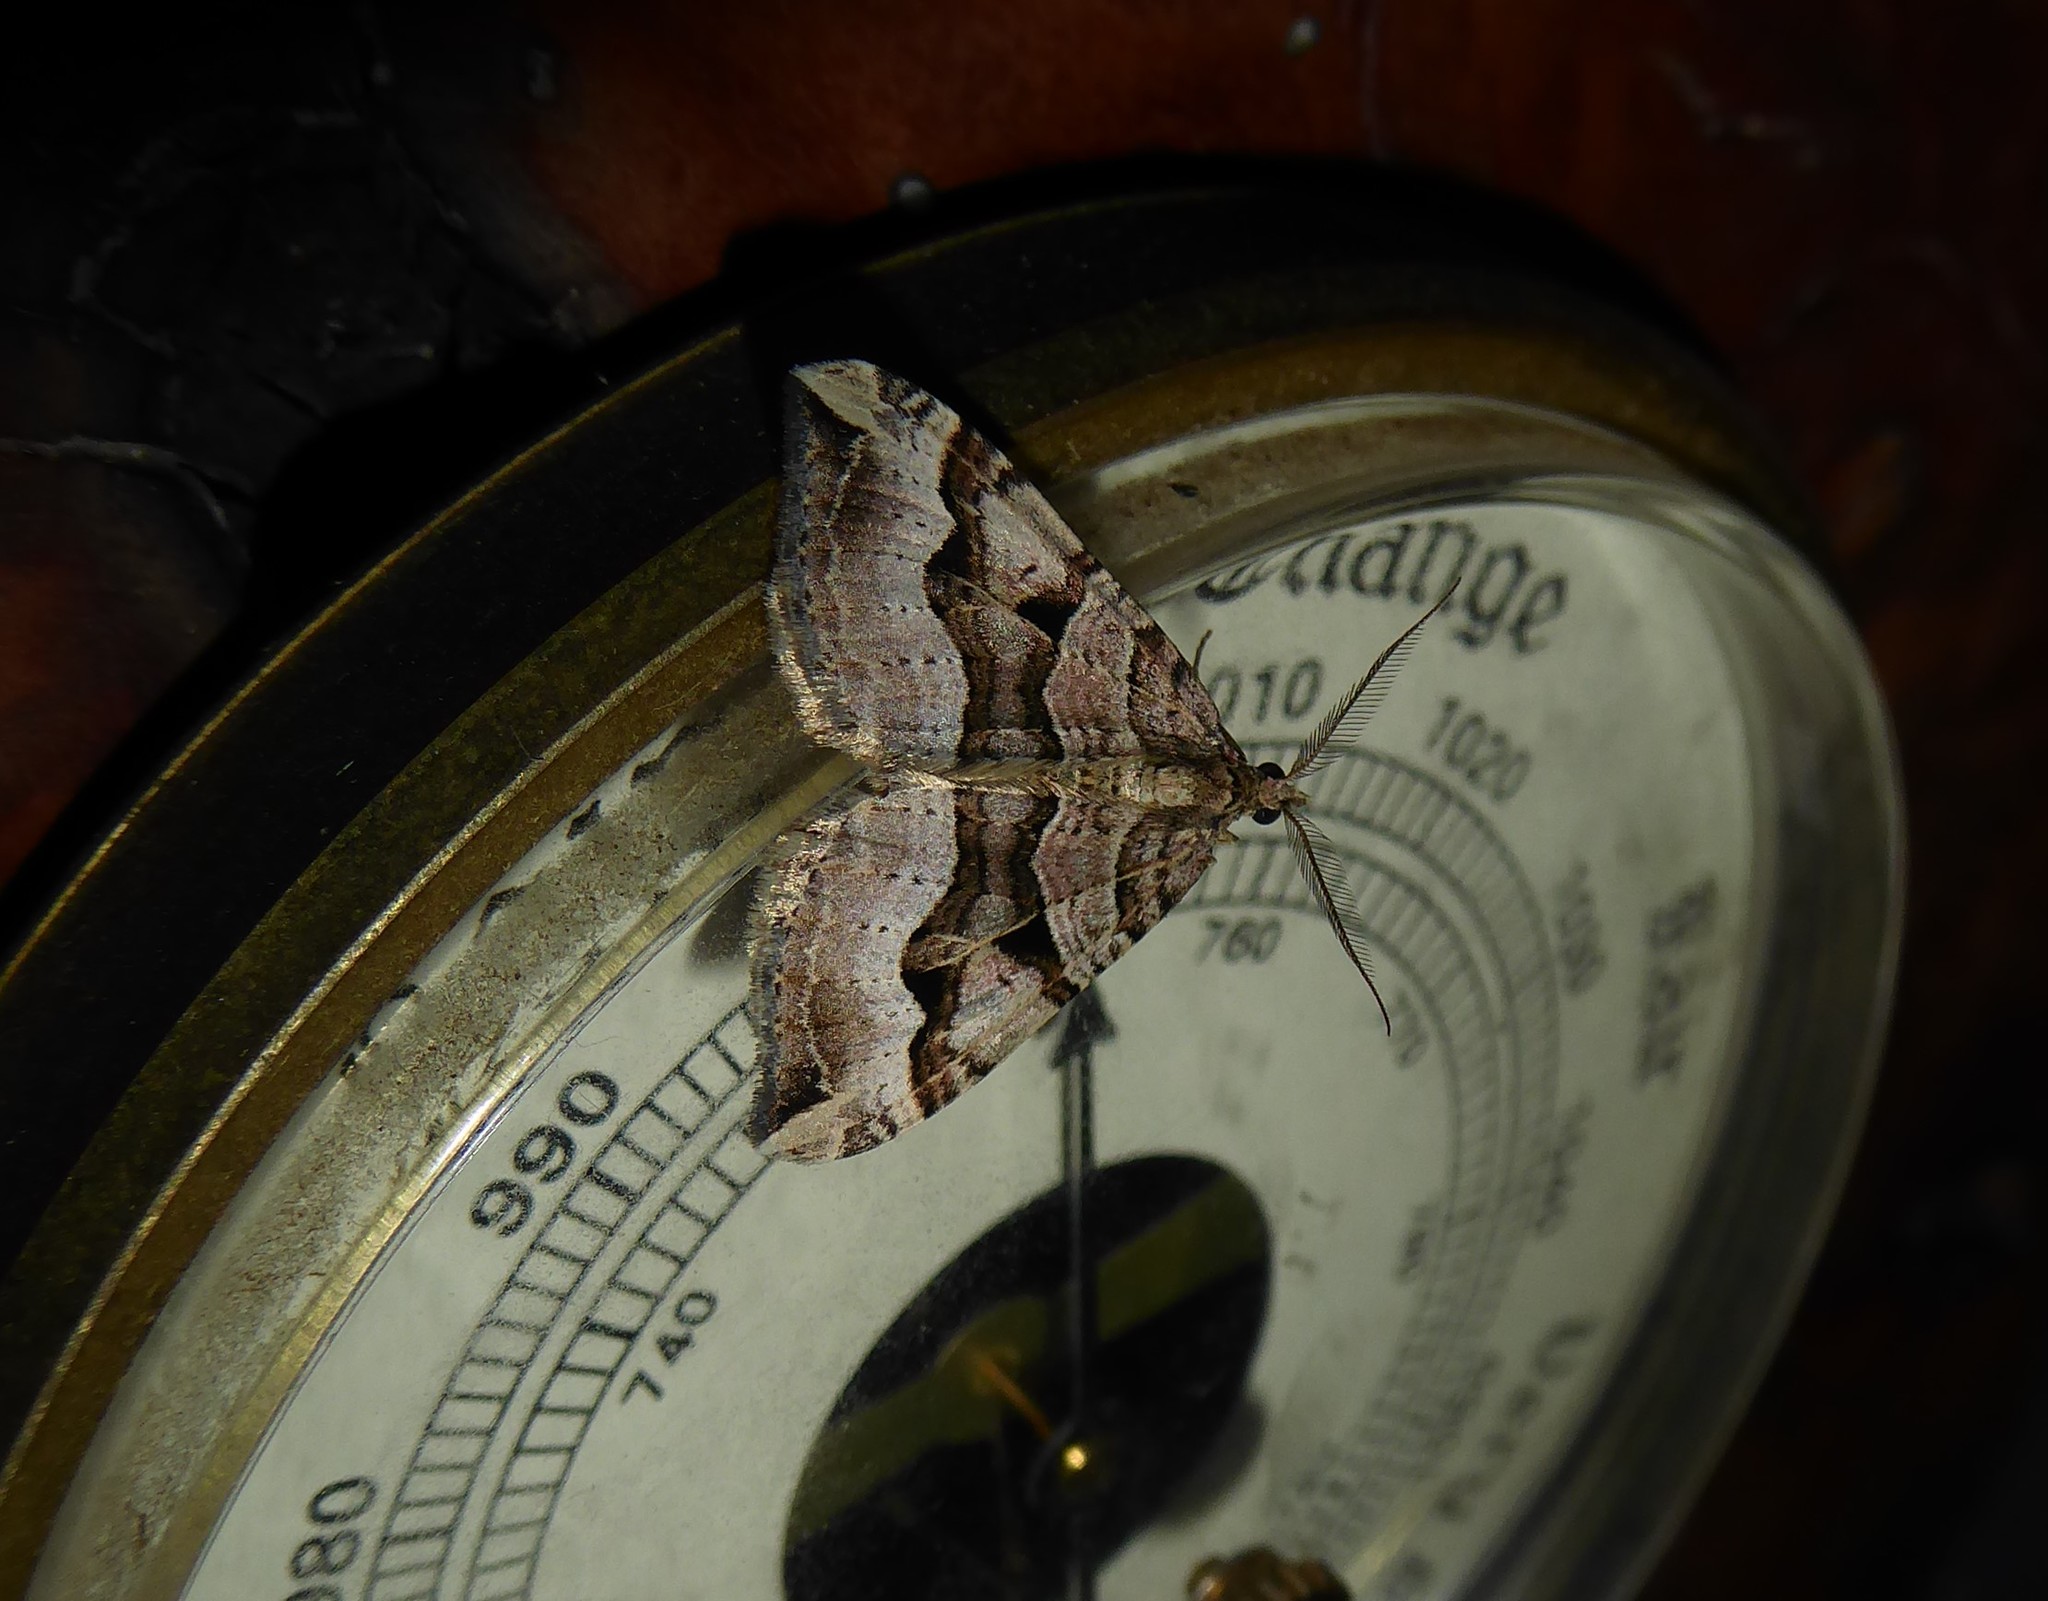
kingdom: Animalia
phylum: Arthropoda
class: Insecta
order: Lepidoptera
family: Geometridae
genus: Xanthorhoe
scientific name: Xanthorhoe semifissata
